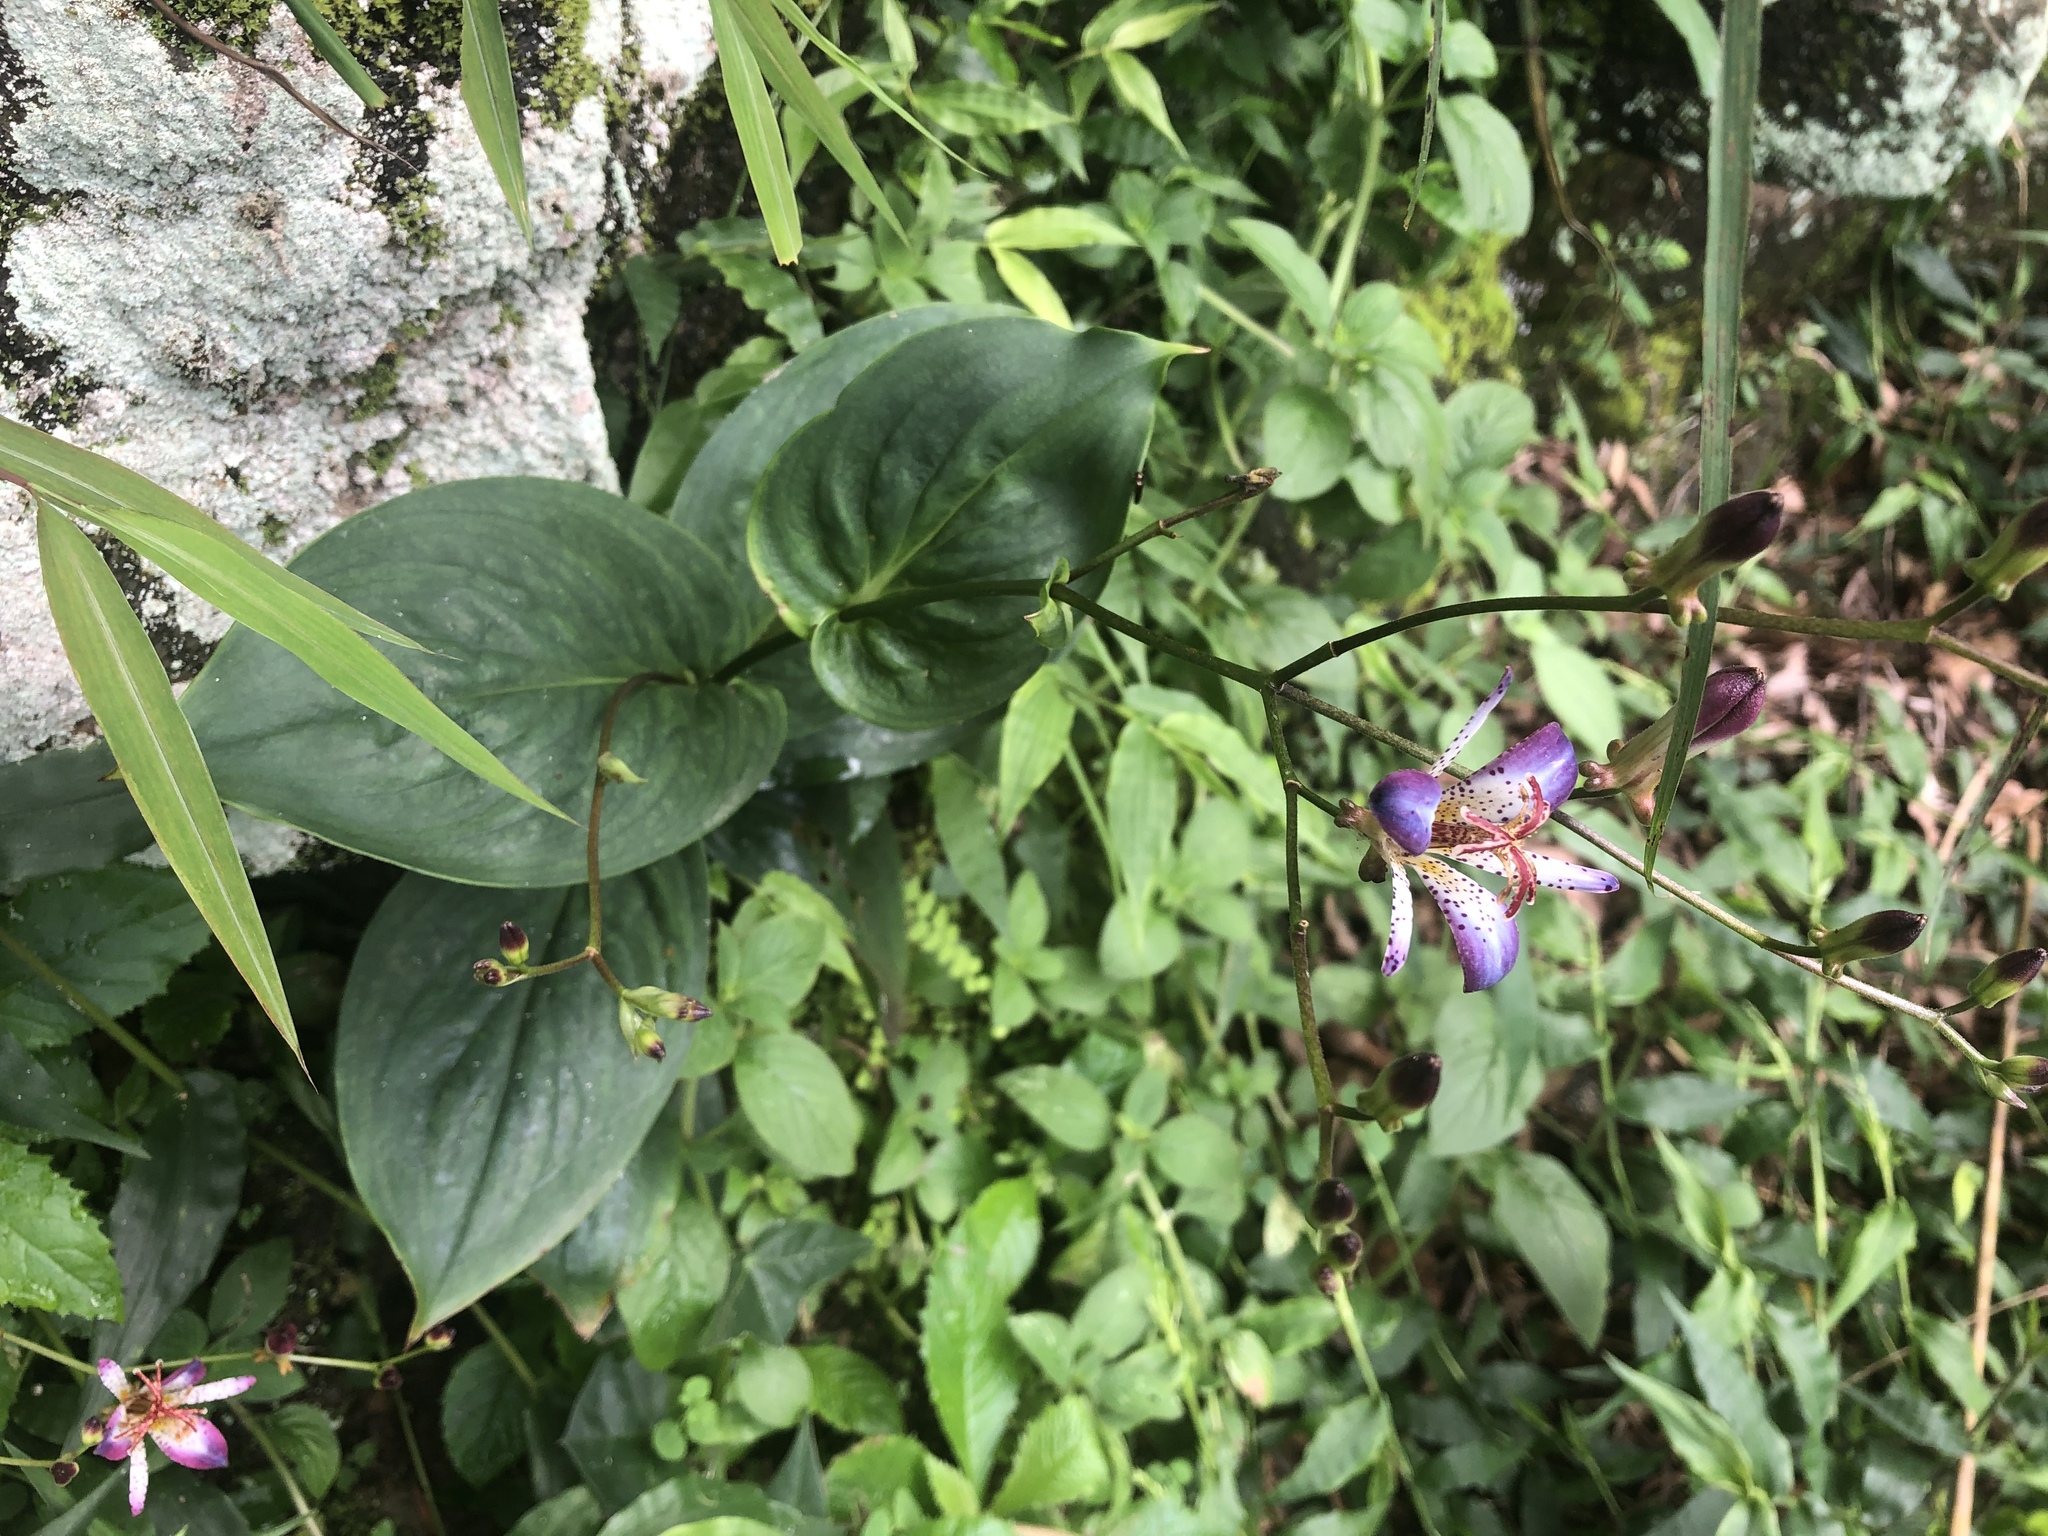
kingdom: Plantae
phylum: Tracheophyta
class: Liliopsida
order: Liliales
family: Liliaceae
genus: Tricyrtis
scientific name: Tricyrtis lasiocarpa
